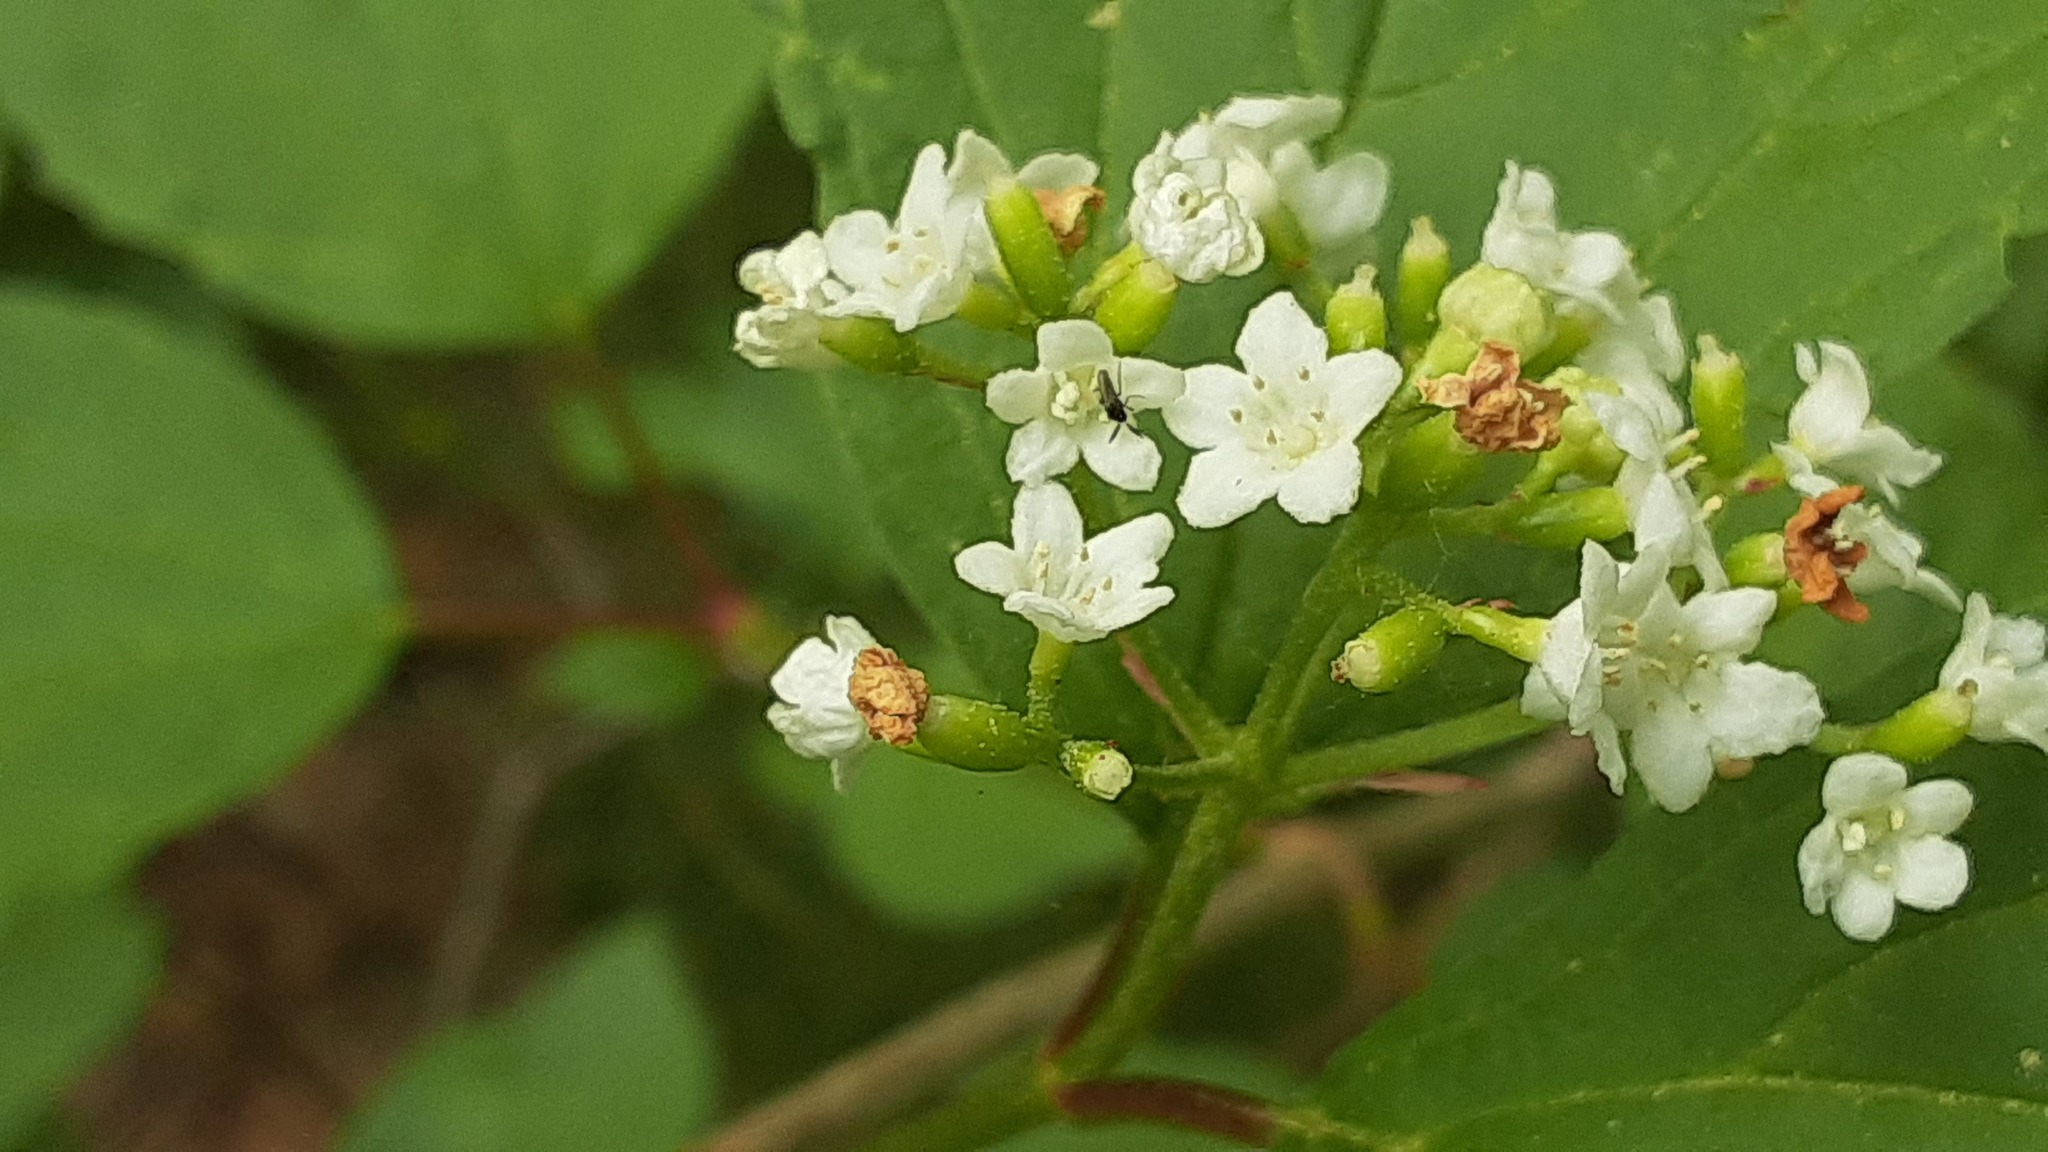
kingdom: Plantae
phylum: Tracheophyta
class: Magnoliopsida
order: Dipsacales
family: Viburnaceae
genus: Viburnum
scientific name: Viburnum edule
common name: Mooseberry
